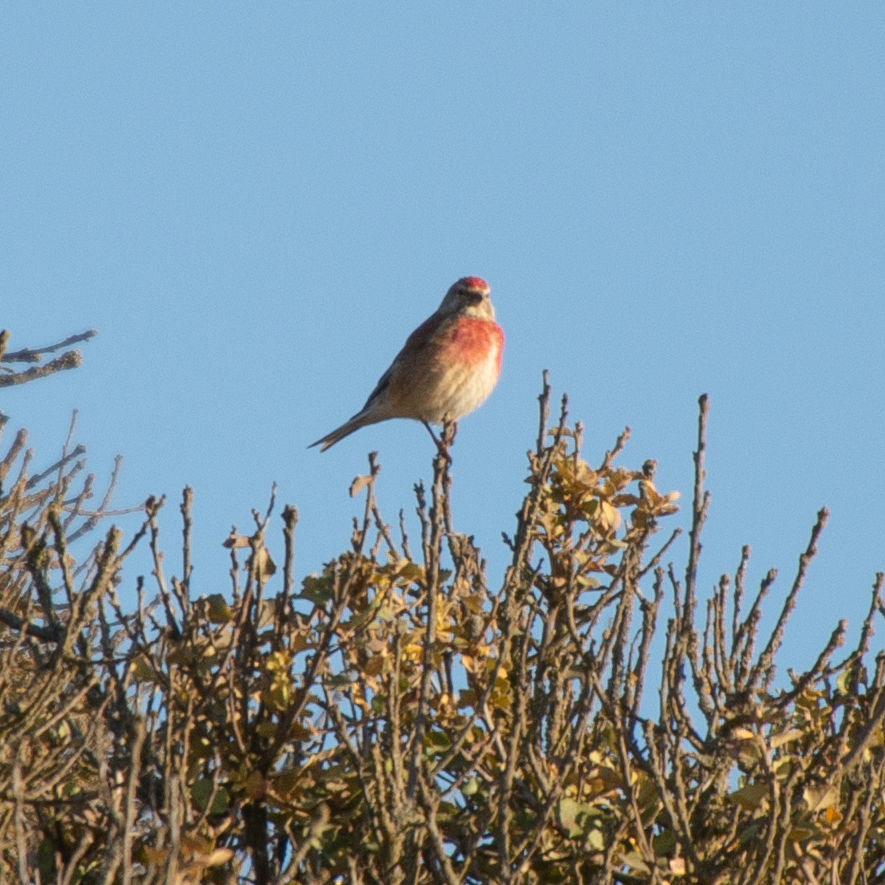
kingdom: Animalia
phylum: Chordata
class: Aves
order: Passeriformes
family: Fringillidae
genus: Linaria
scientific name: Linaria cannabina
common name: Common linnet
